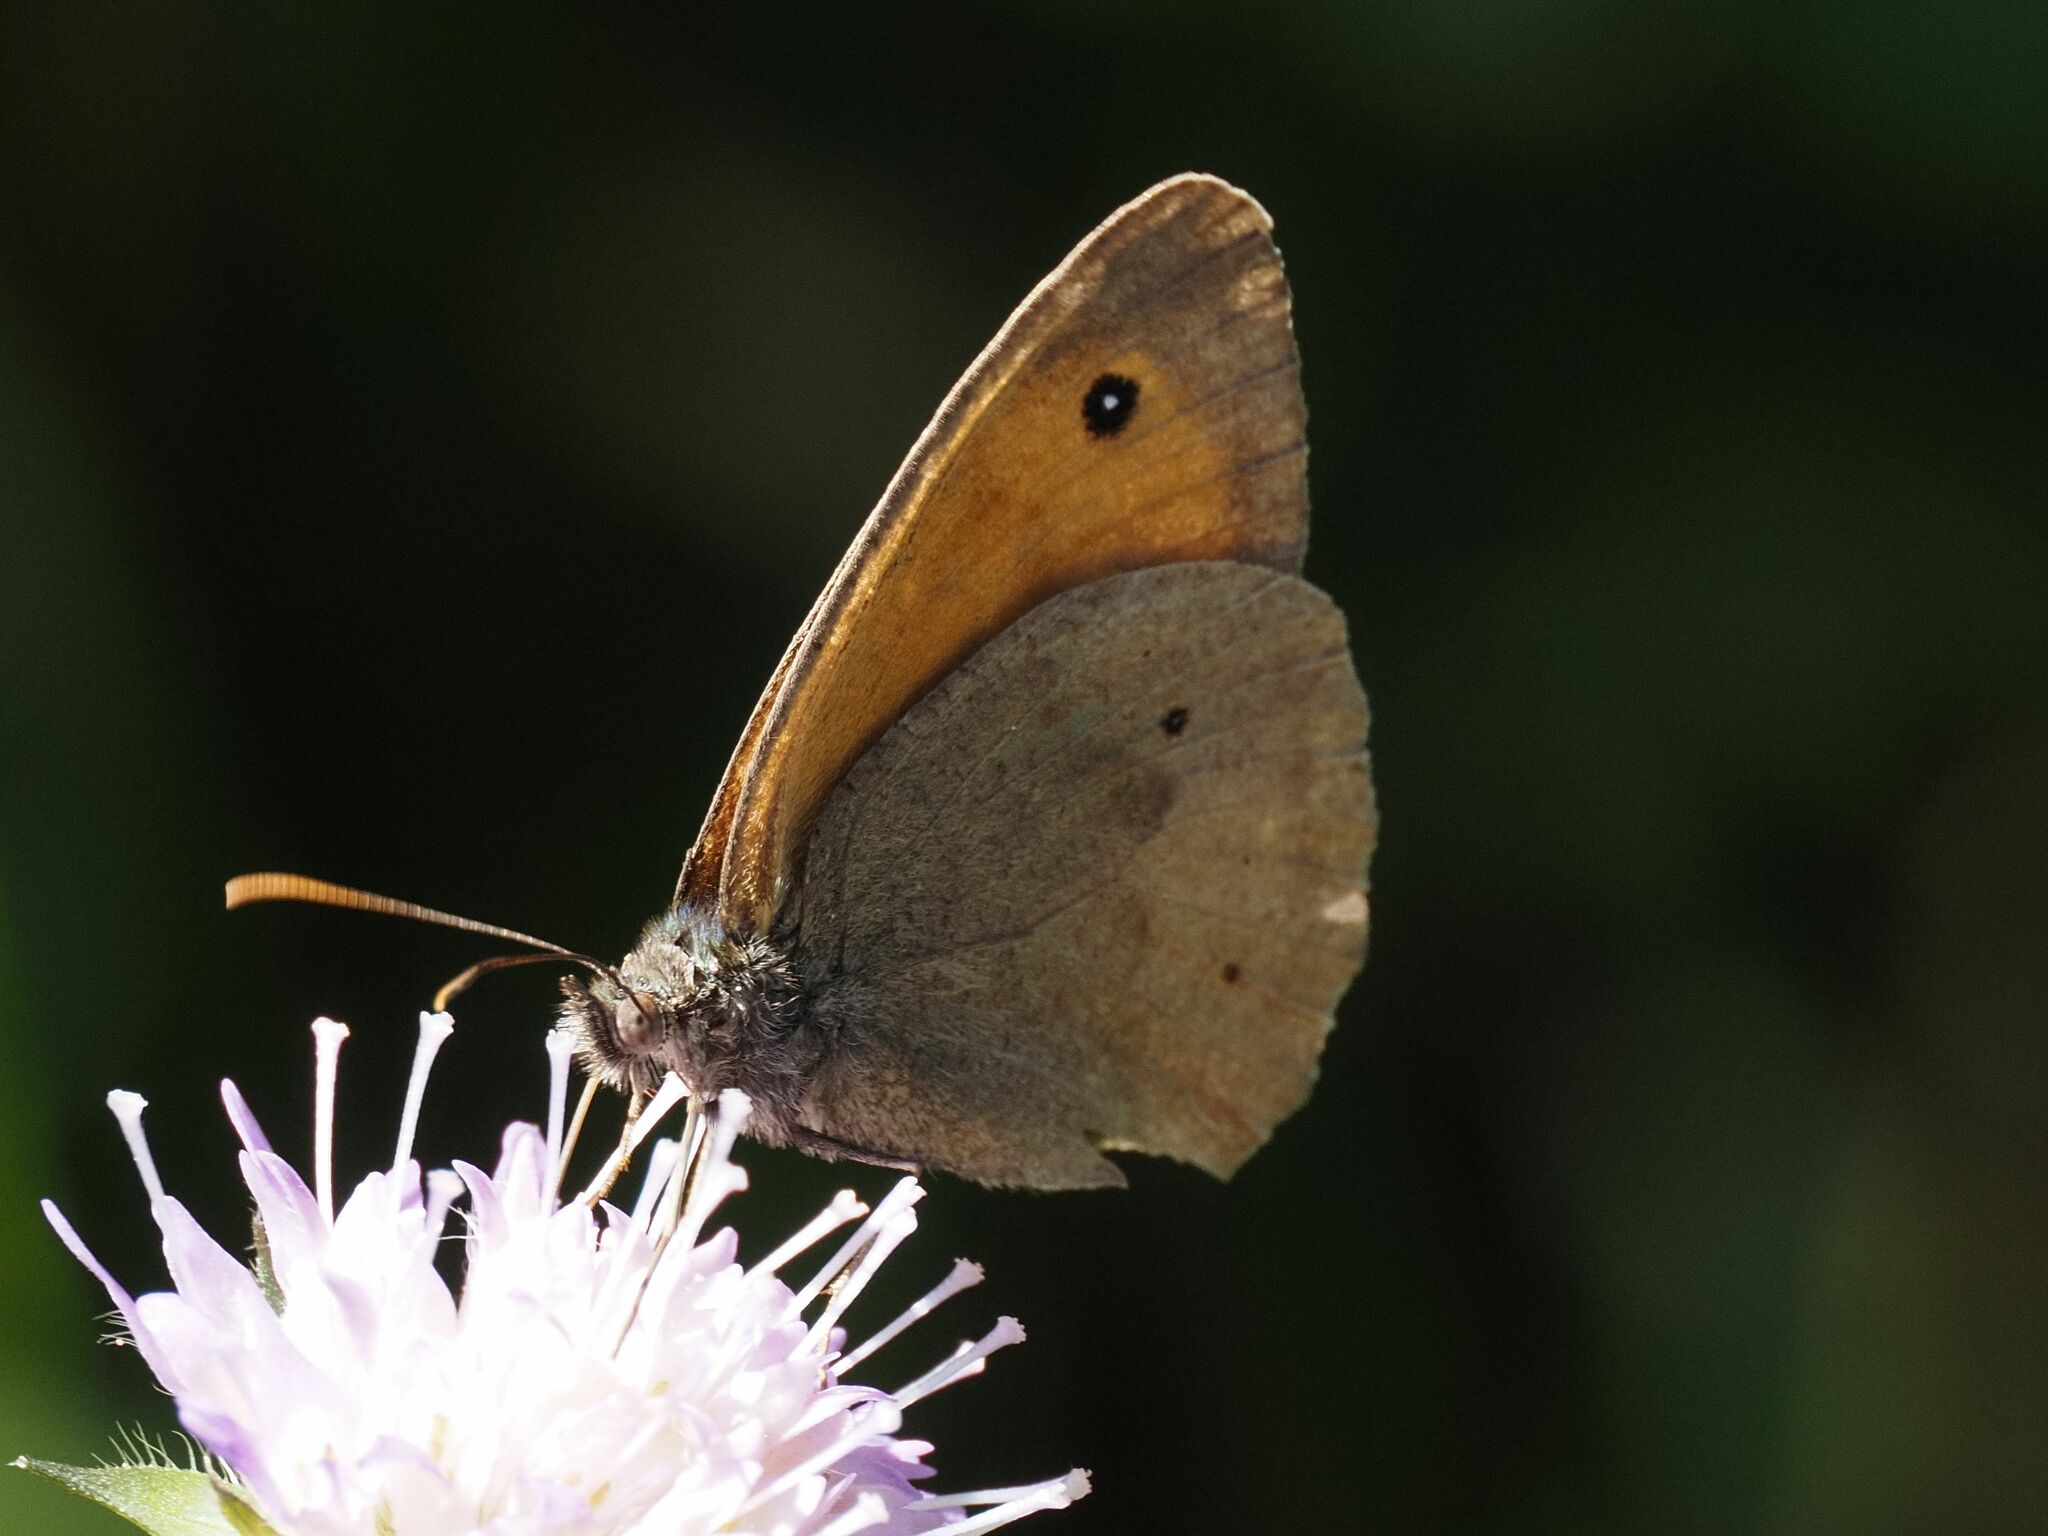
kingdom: Animalia
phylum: Arthropoda
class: Insecta
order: Lepidoptera
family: Nymphalidae
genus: Maniola
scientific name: Maniola jurtina
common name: Meadow brown
